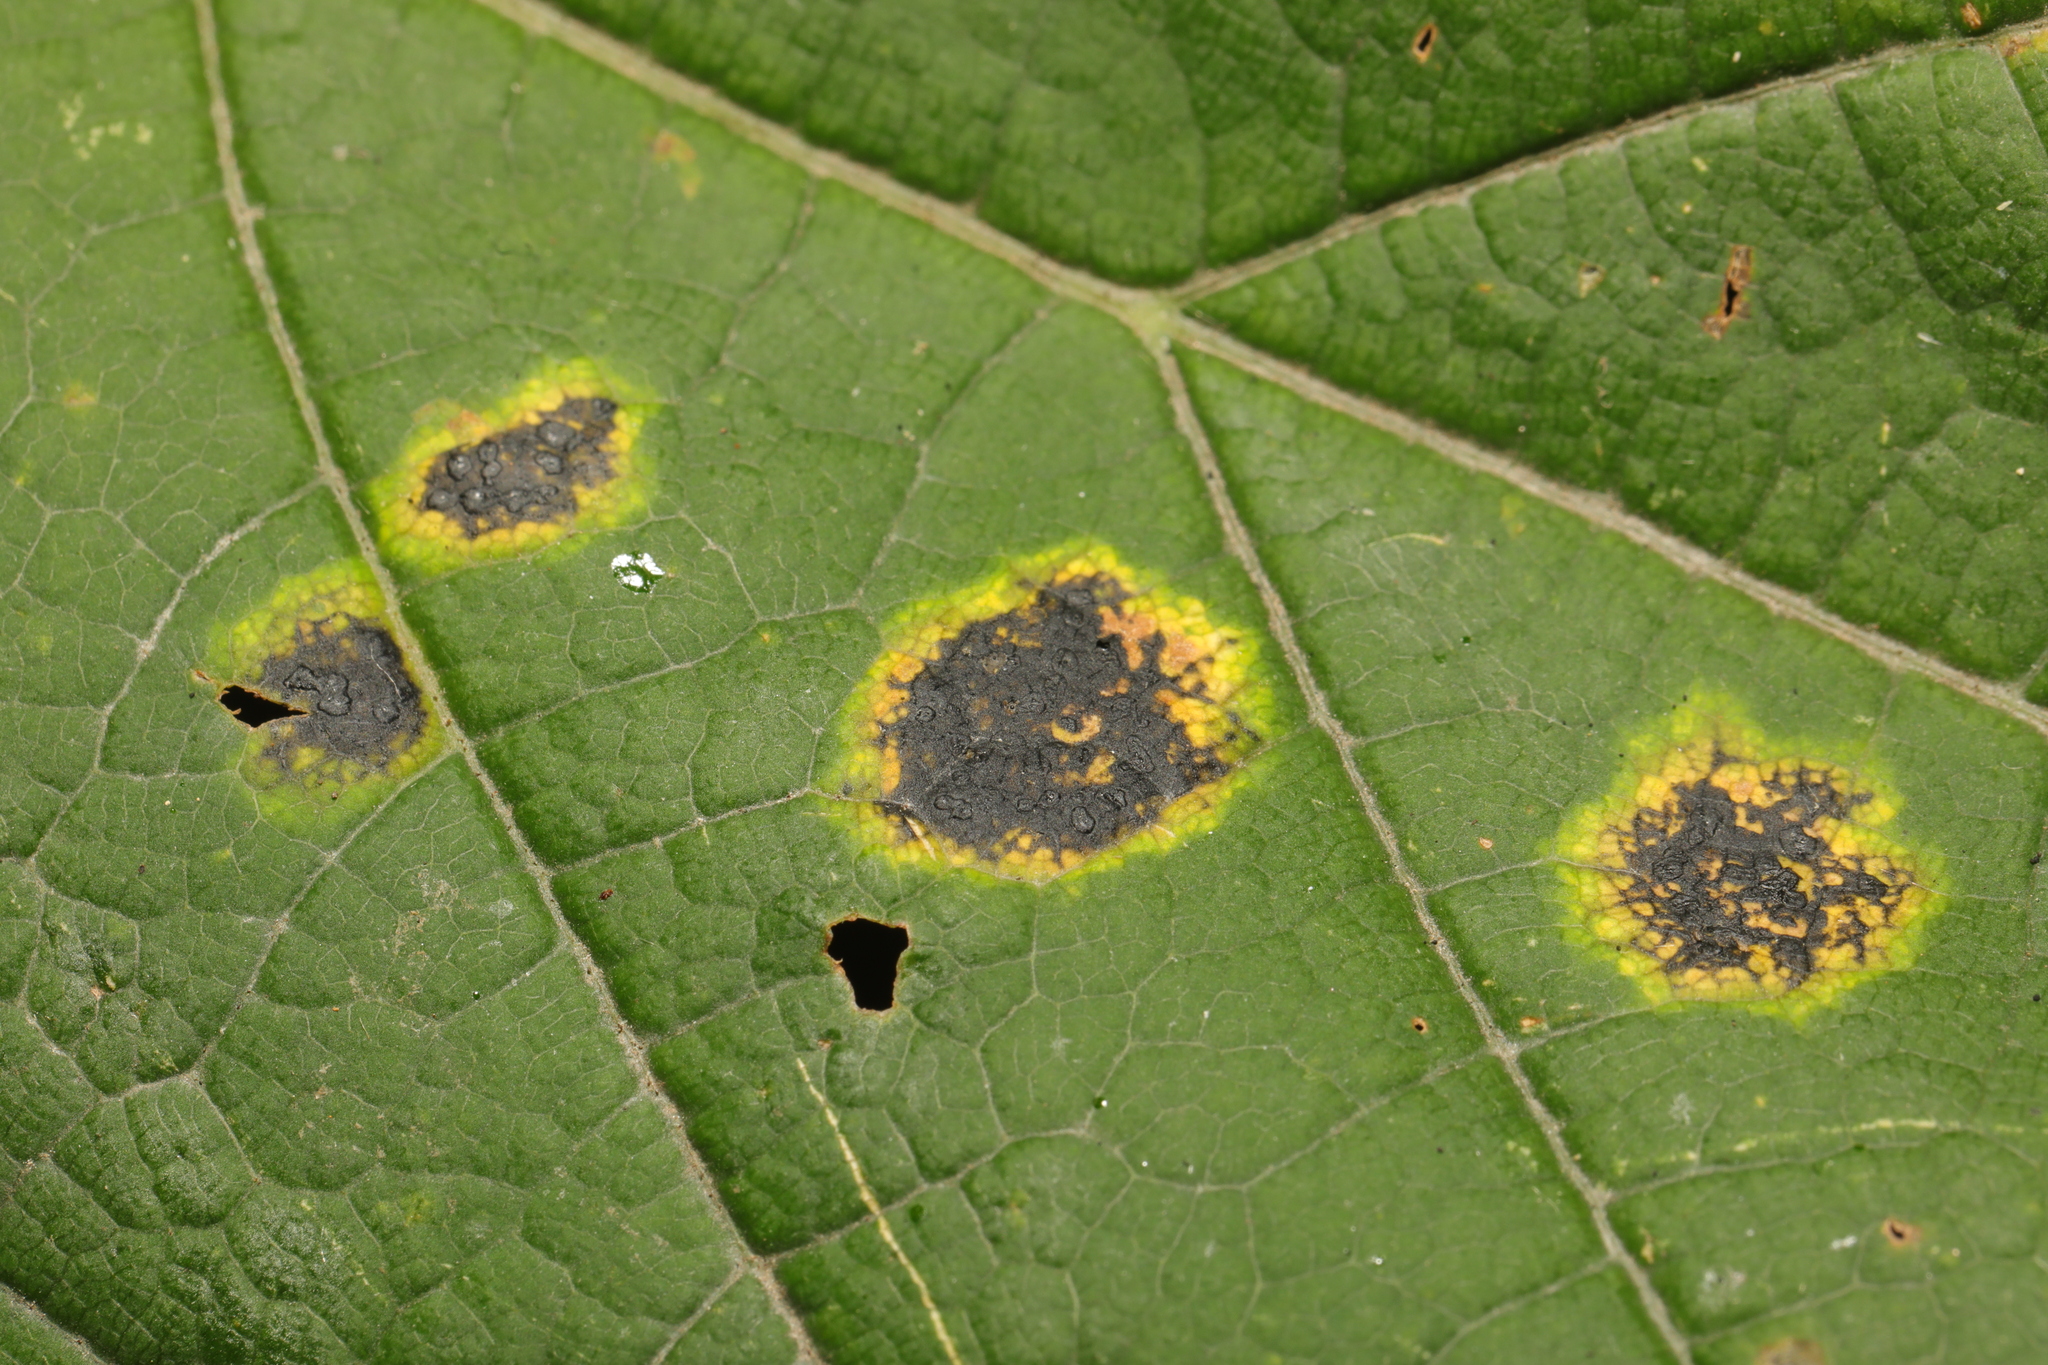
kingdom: Fungi
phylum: Ascomycota
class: Leotiomycetes
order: Rhytismatales
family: Rhytismataceae
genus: Rhytisma
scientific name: Rhytisma acerinum
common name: European tar spot
